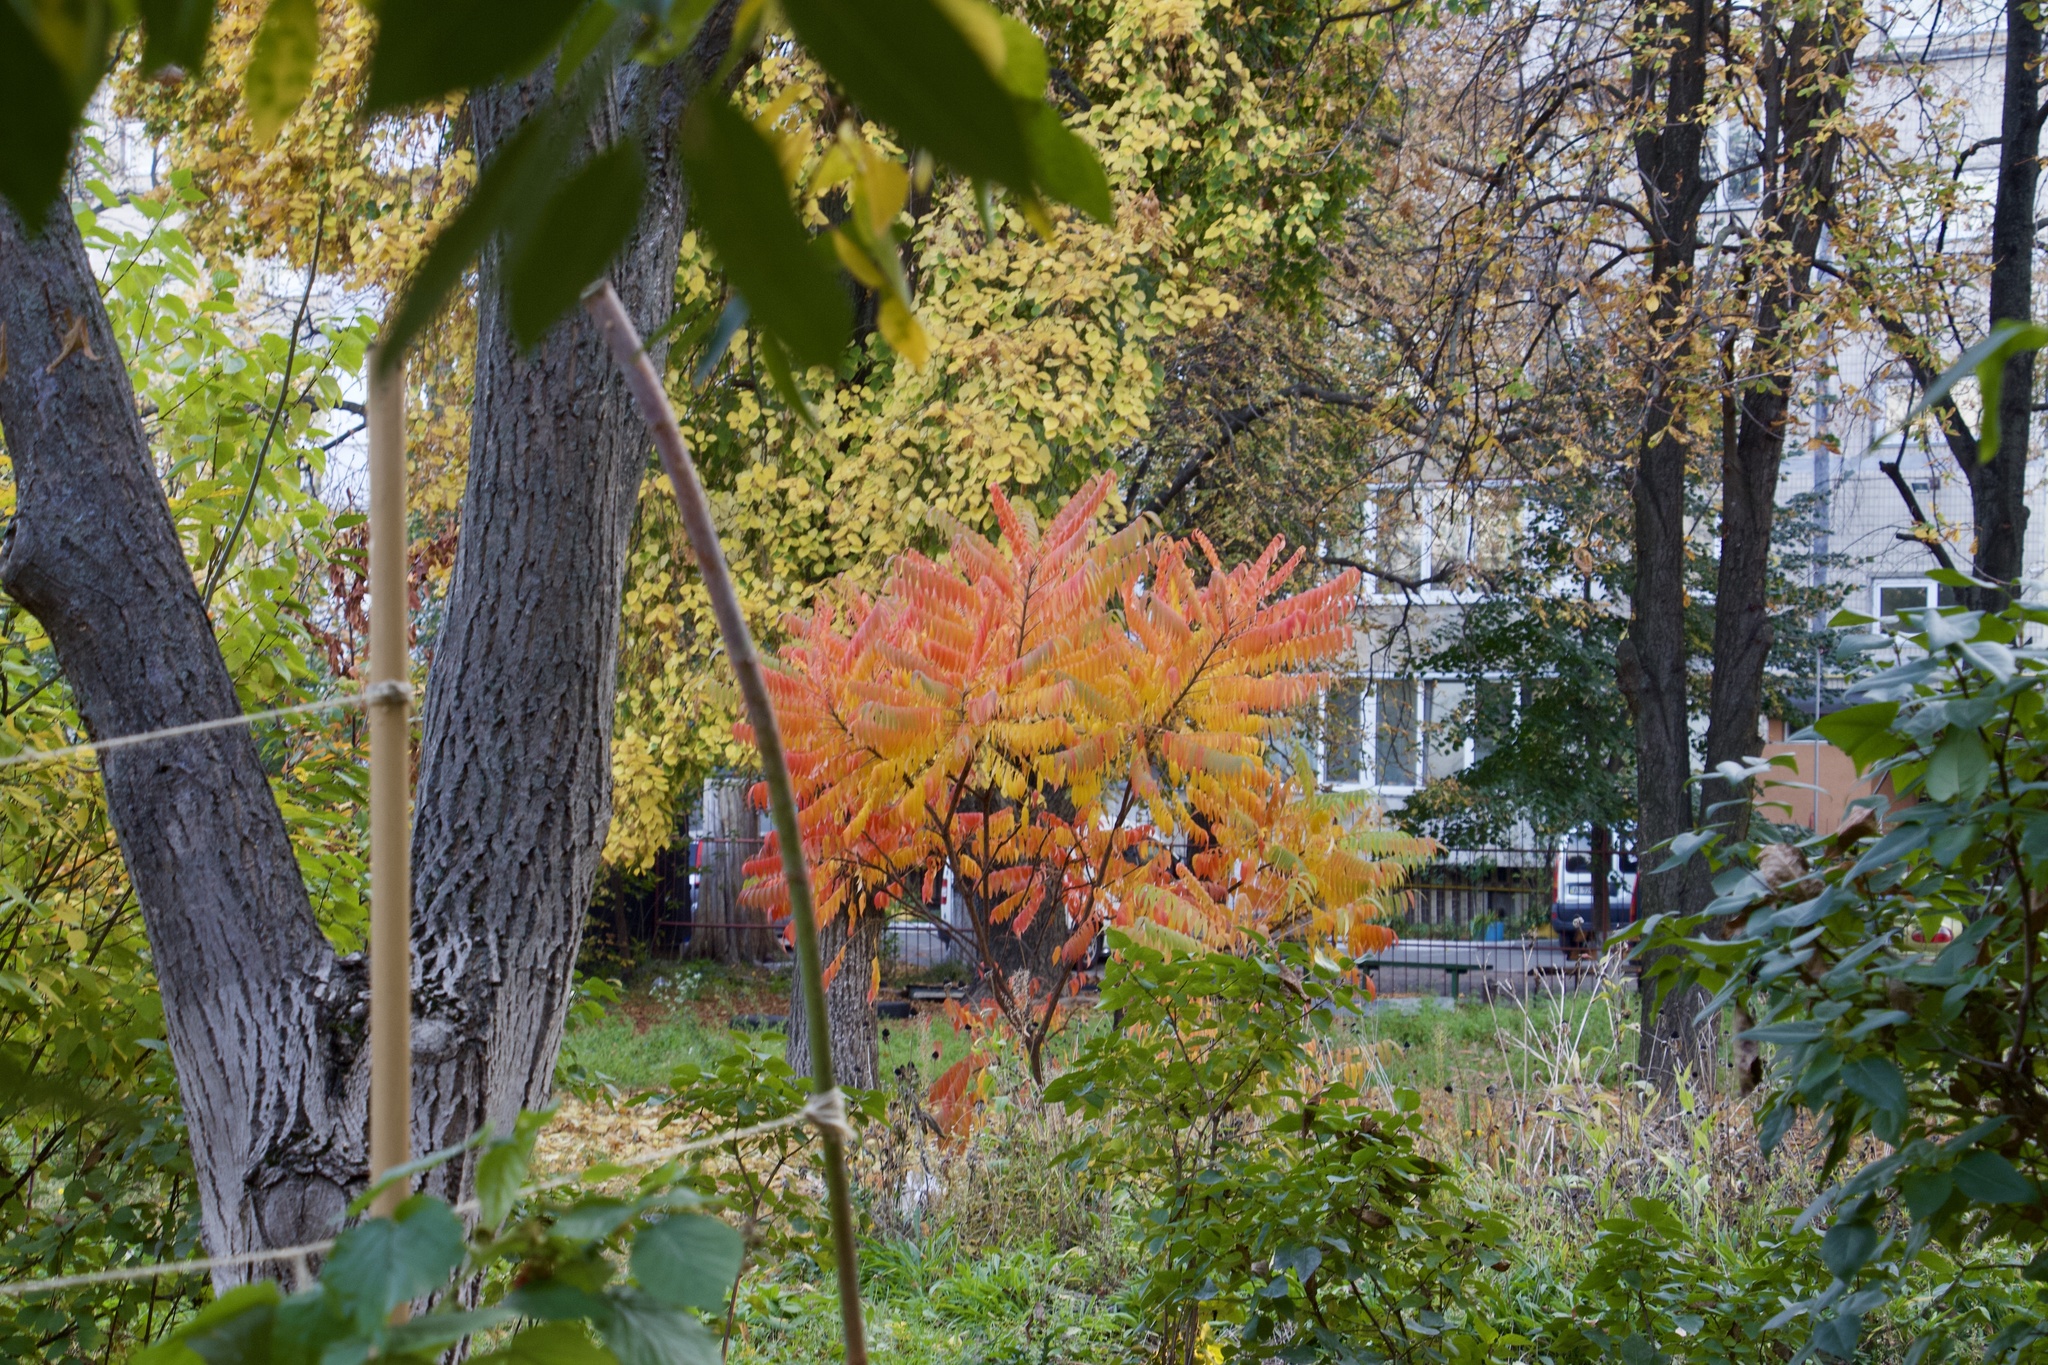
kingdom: Plantae
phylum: Tracheophyta
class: Magnoliopsida
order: Sapindales
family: Anacardiaceae
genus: Rhus
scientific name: Rhus typhina
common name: Staghorn sumac
